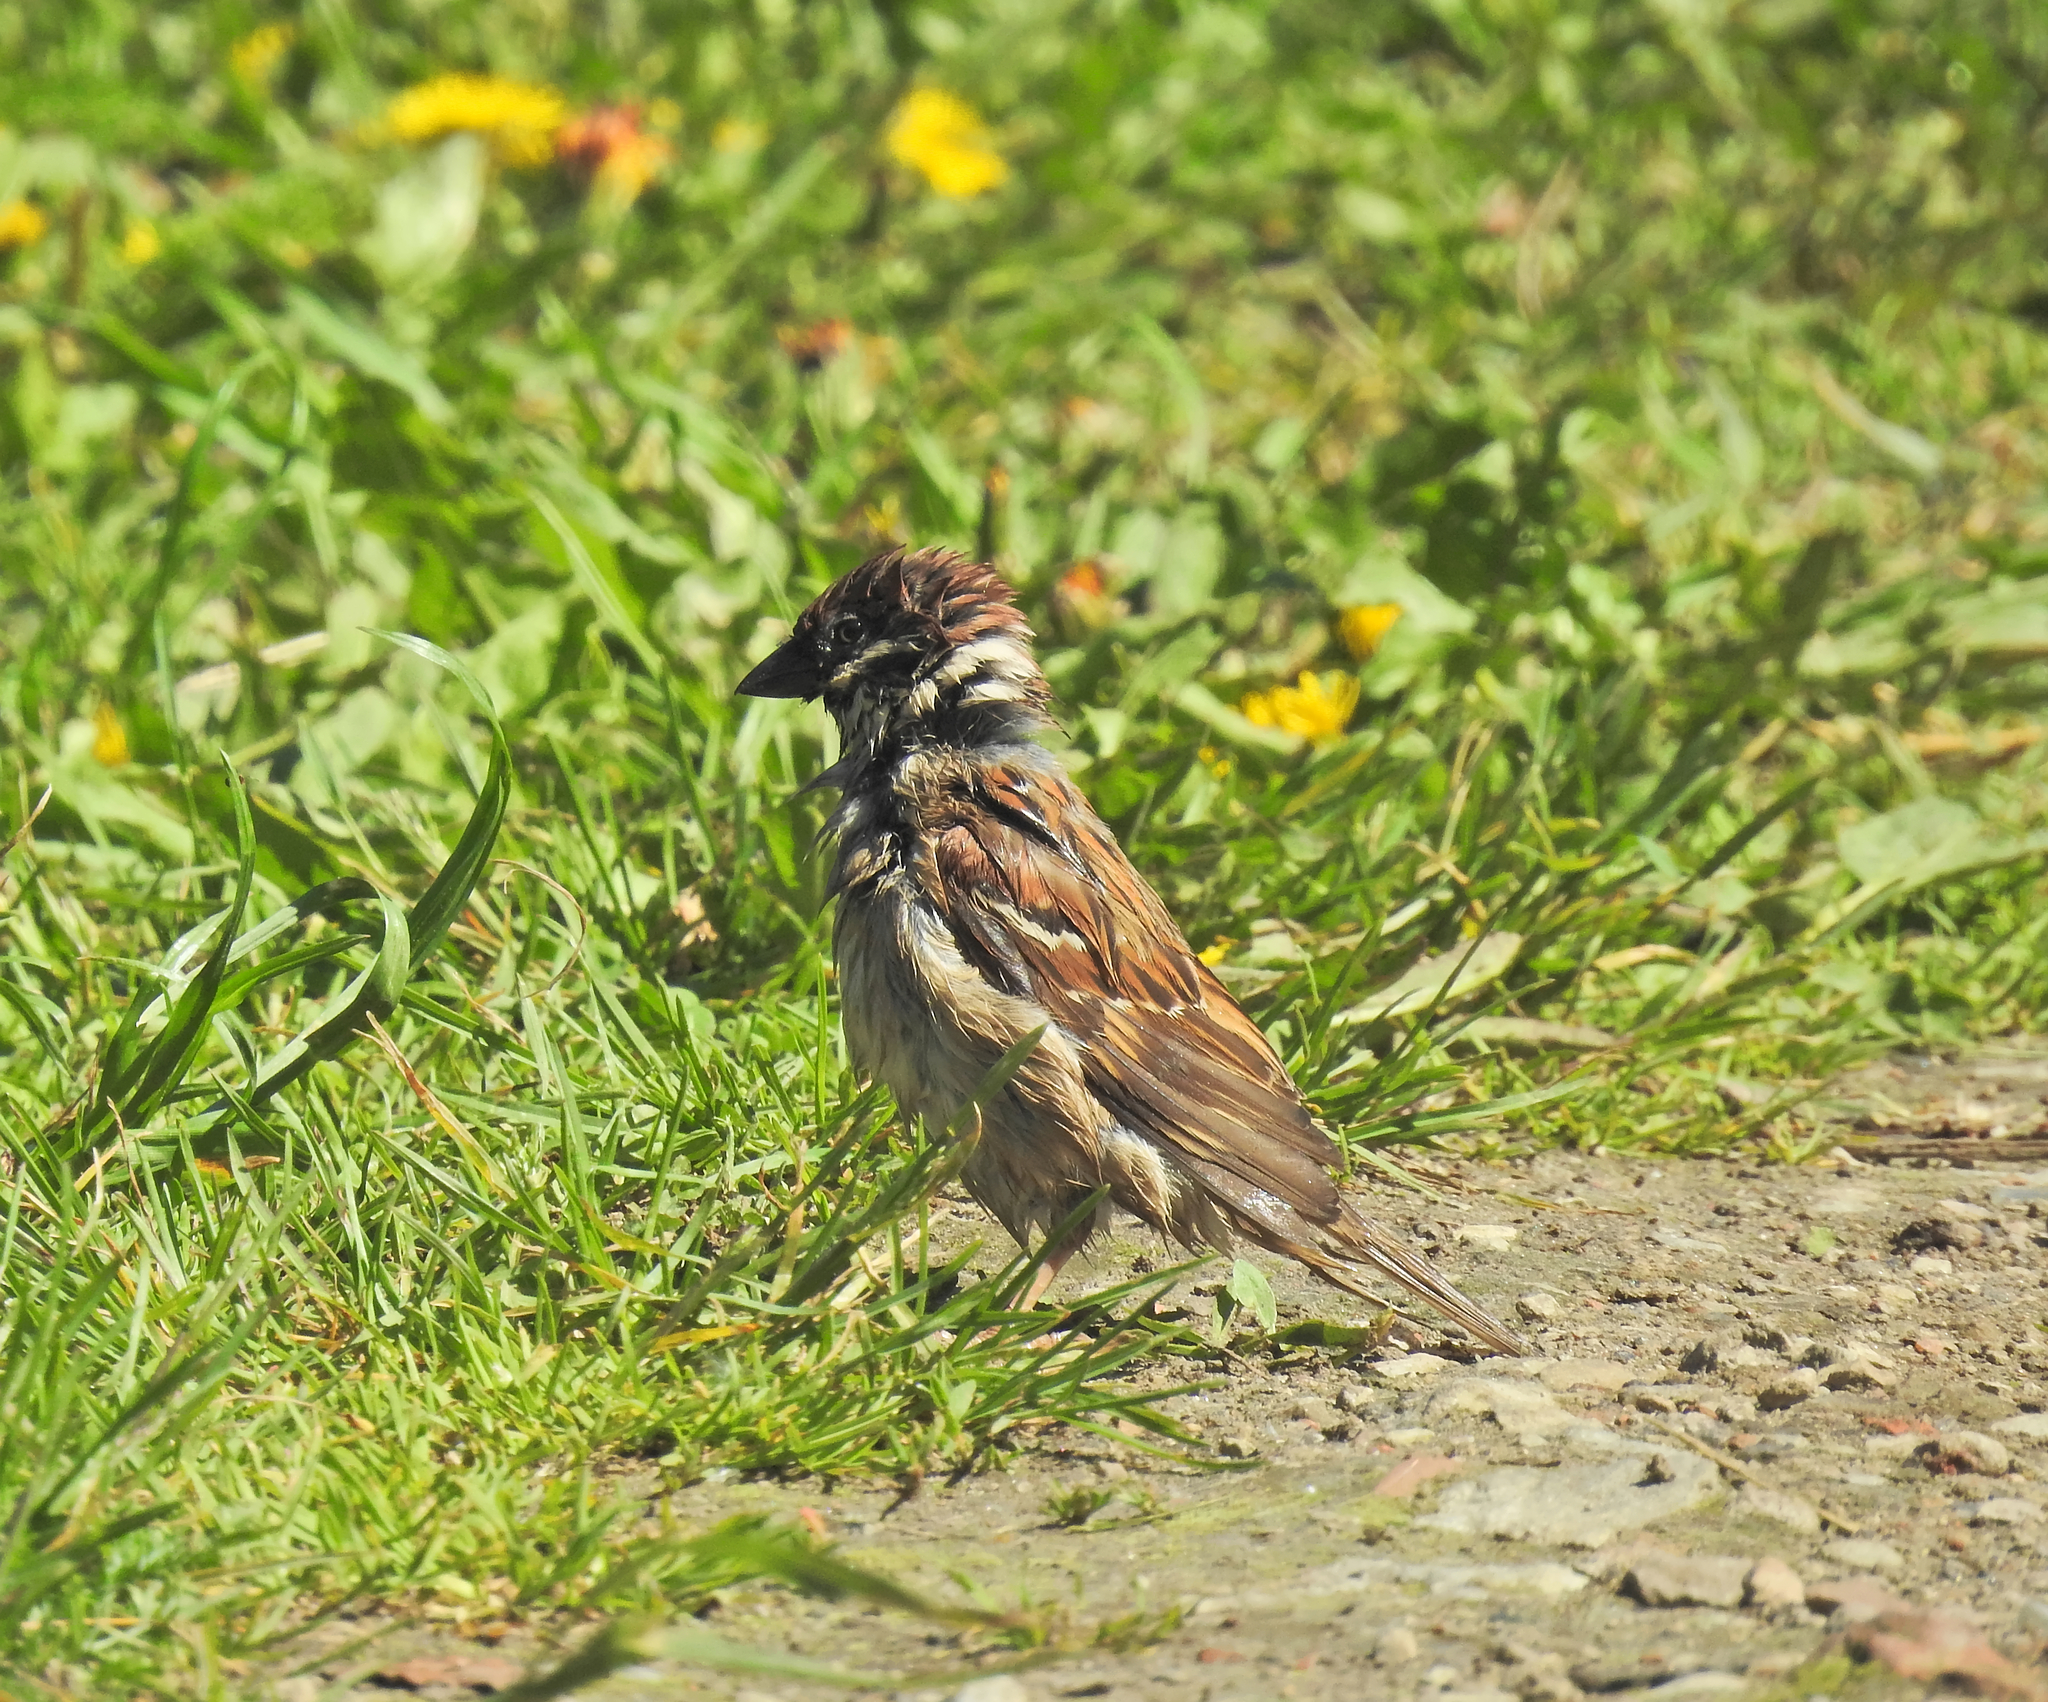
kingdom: Animalia
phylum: Chordata
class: Aves
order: Passeriformes
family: Passeridae
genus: Passer
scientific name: Passer montanus
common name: Eurasian tree sparrow
